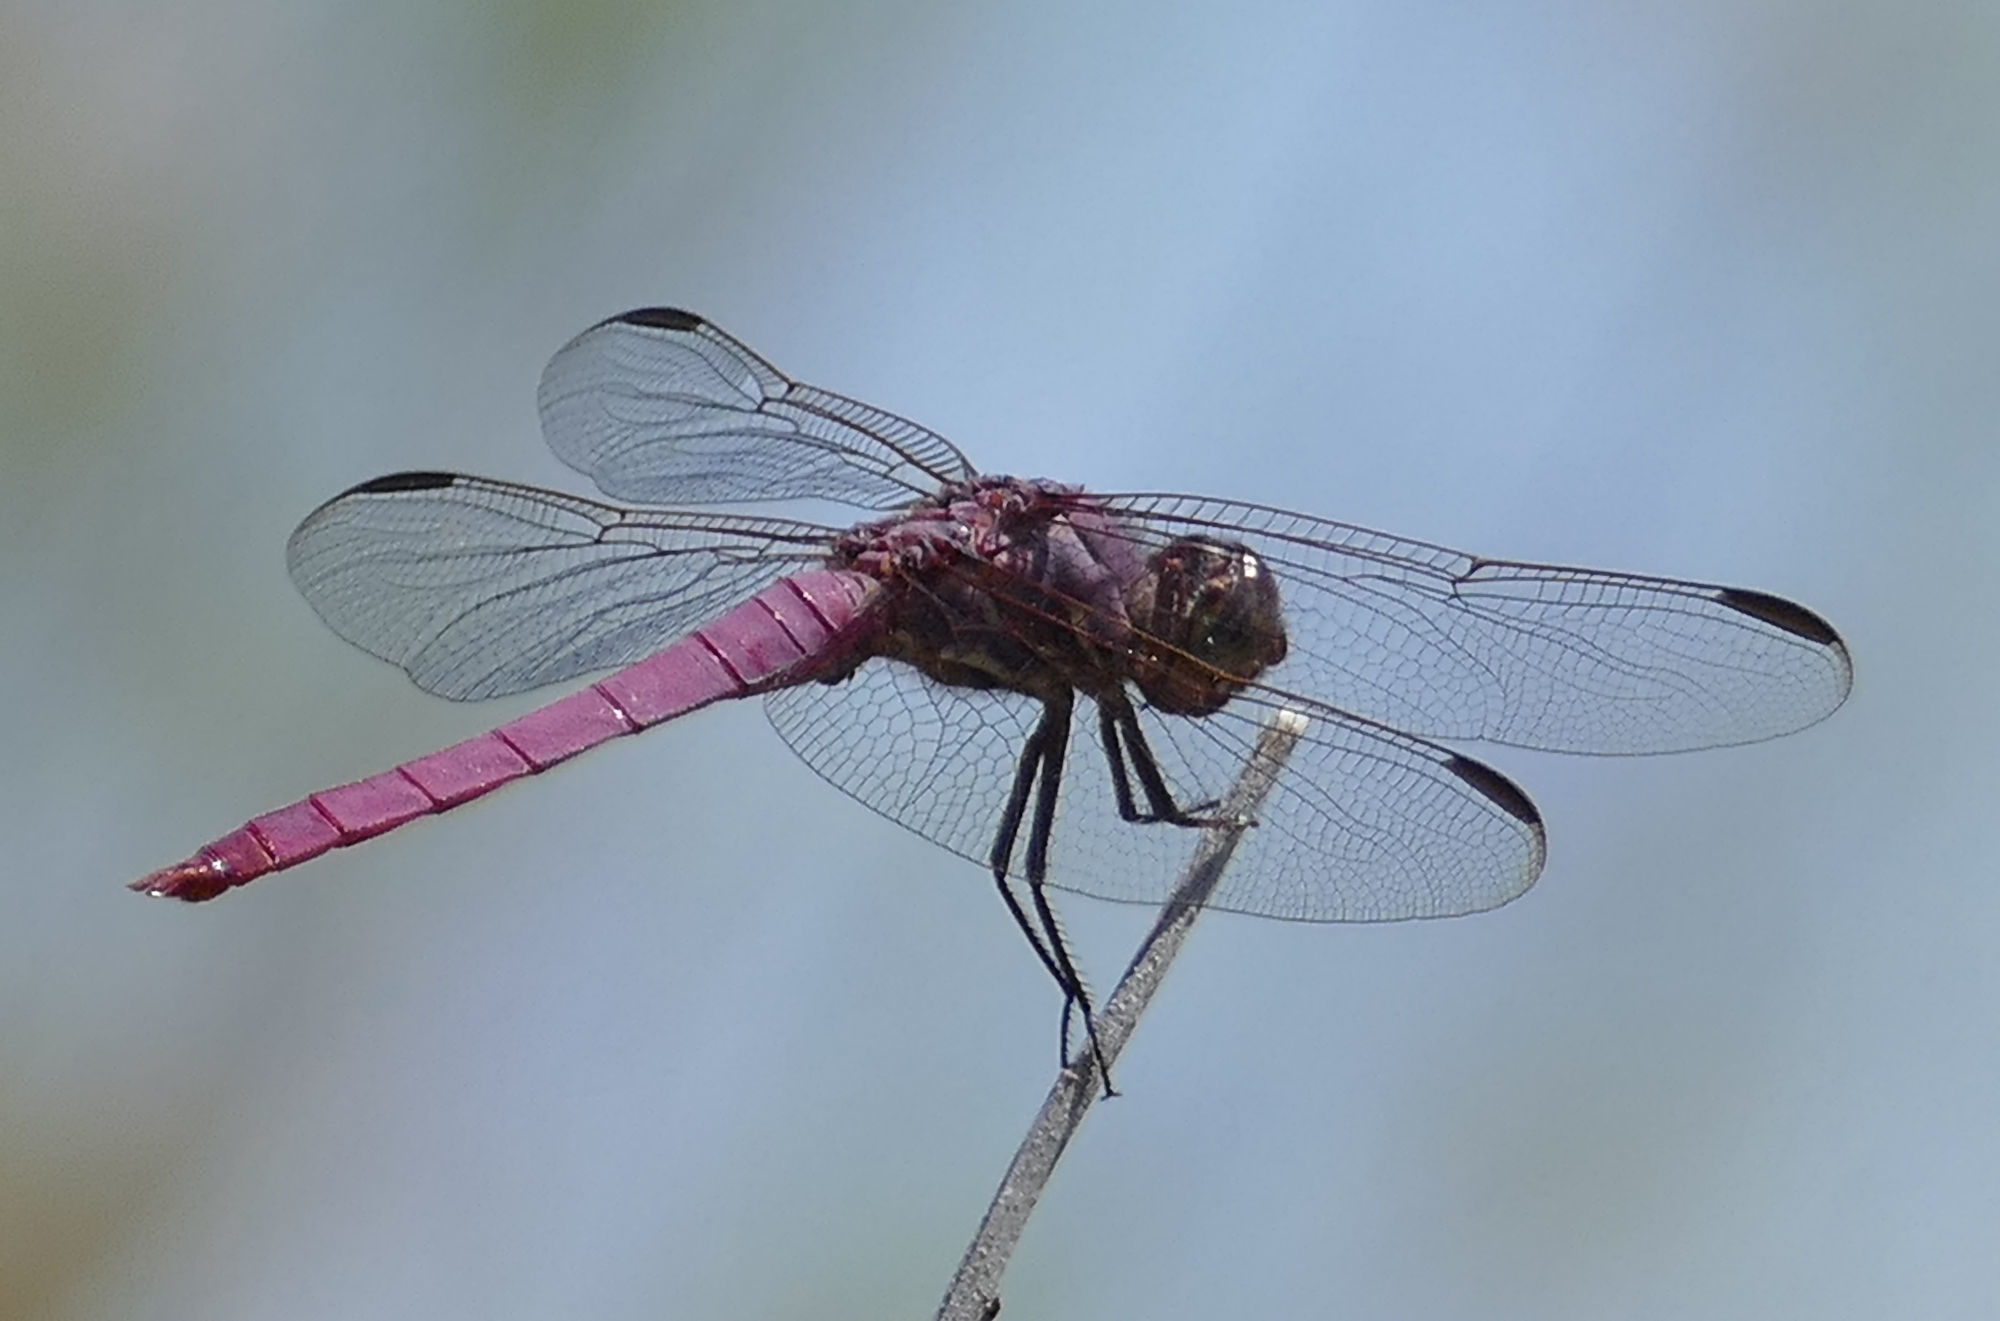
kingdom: Animalia
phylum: Arthropoda
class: Insecta
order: Odonata
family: Libellulidae
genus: Orthemis
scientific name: Orthemis ferruginea
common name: Roseate skimmer
